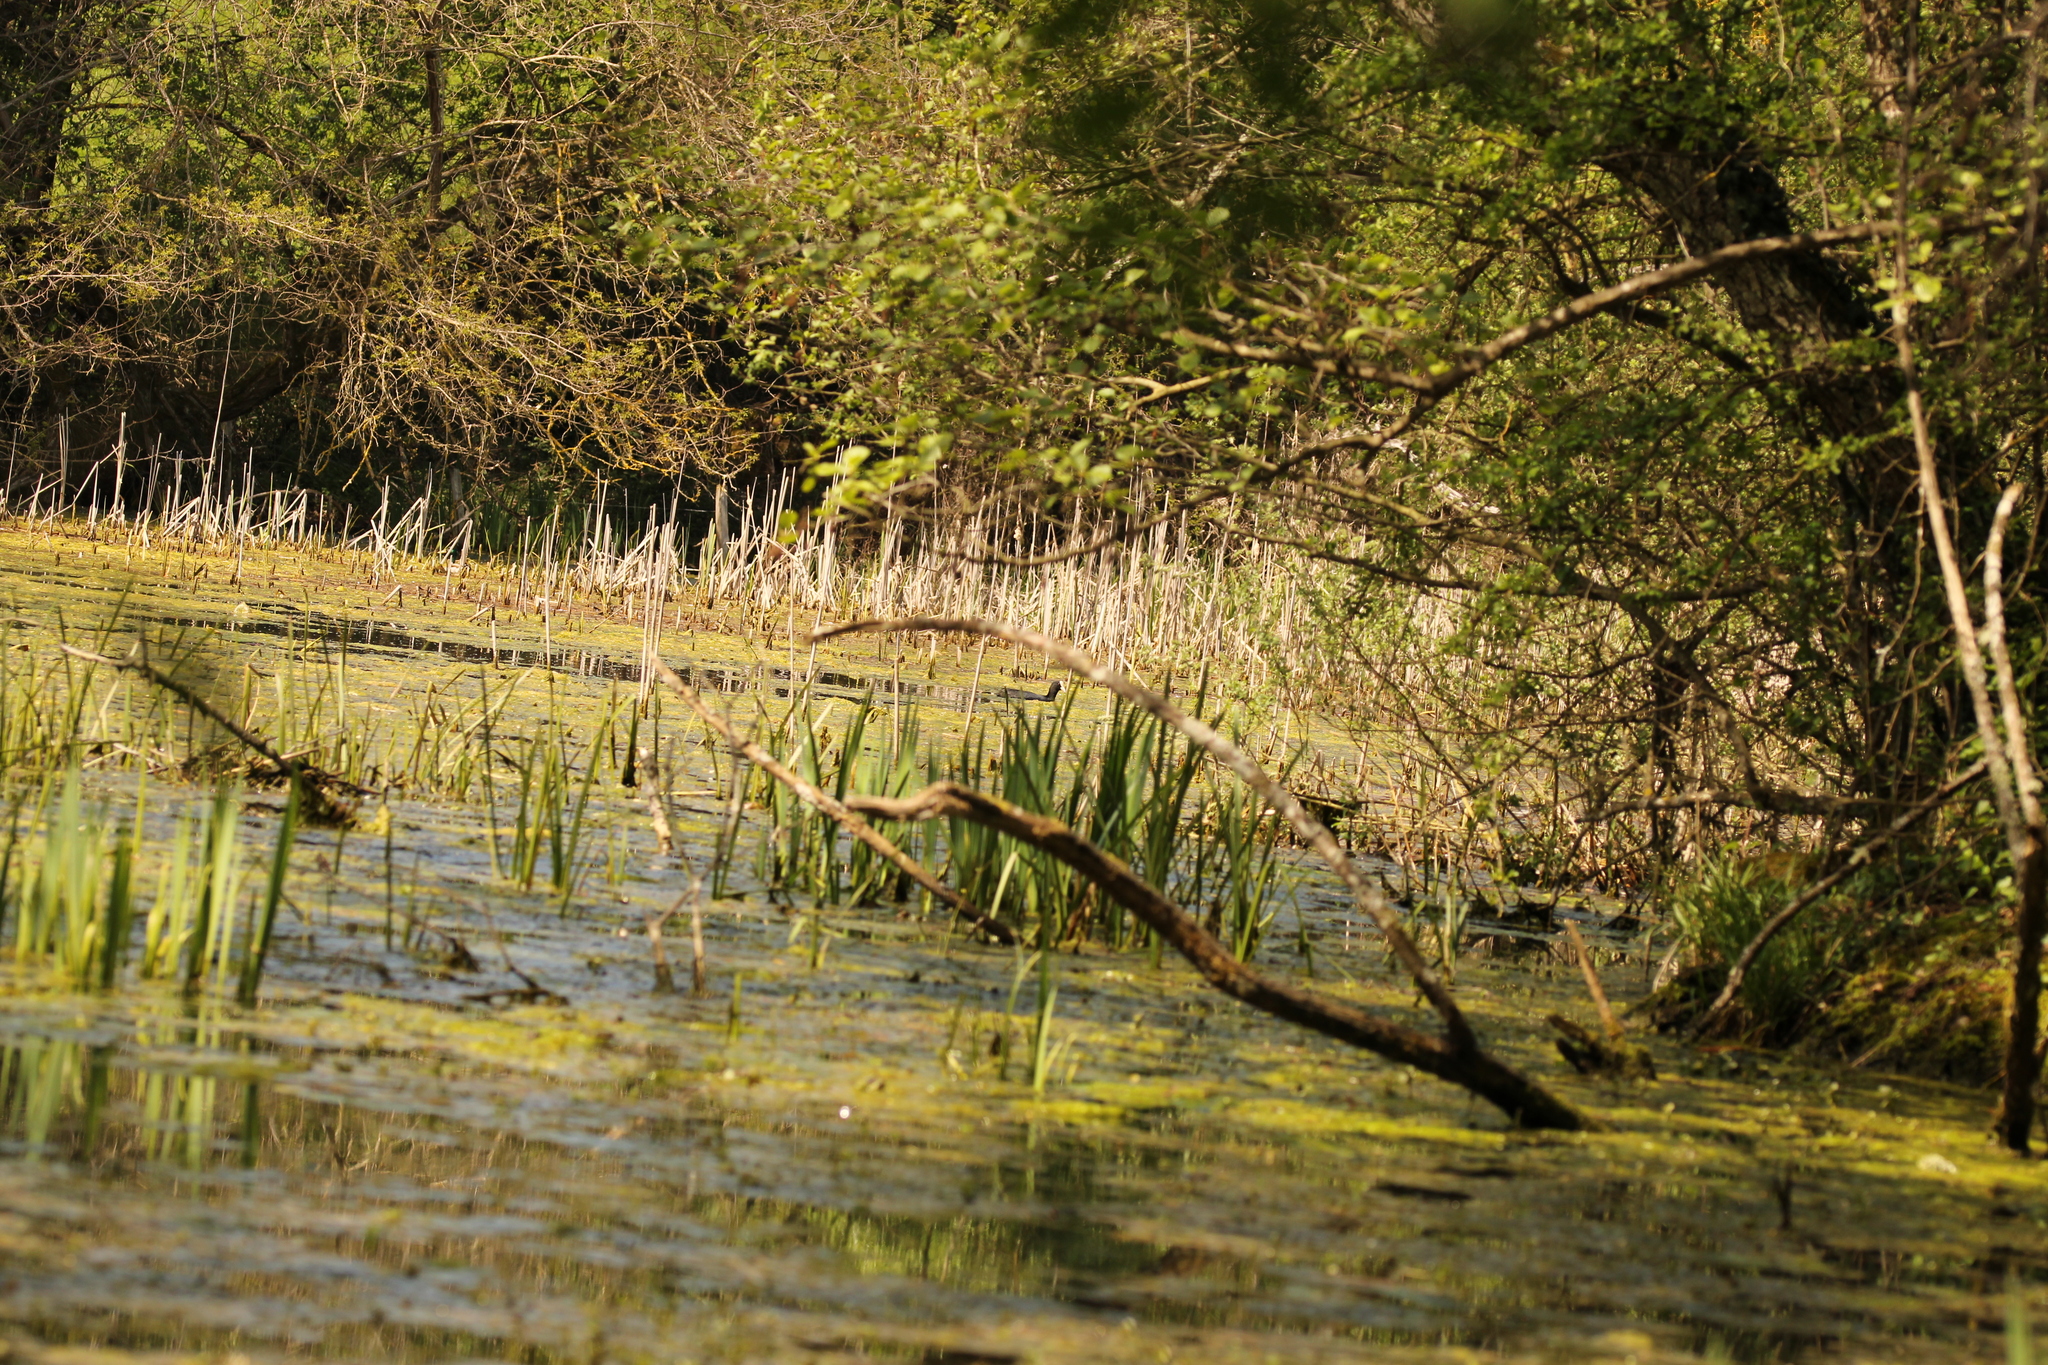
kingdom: Animalia
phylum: Chordata
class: Aves
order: Gruiformes
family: Rallidae
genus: Fulica
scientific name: Fulica atra
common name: Eurasian coot
